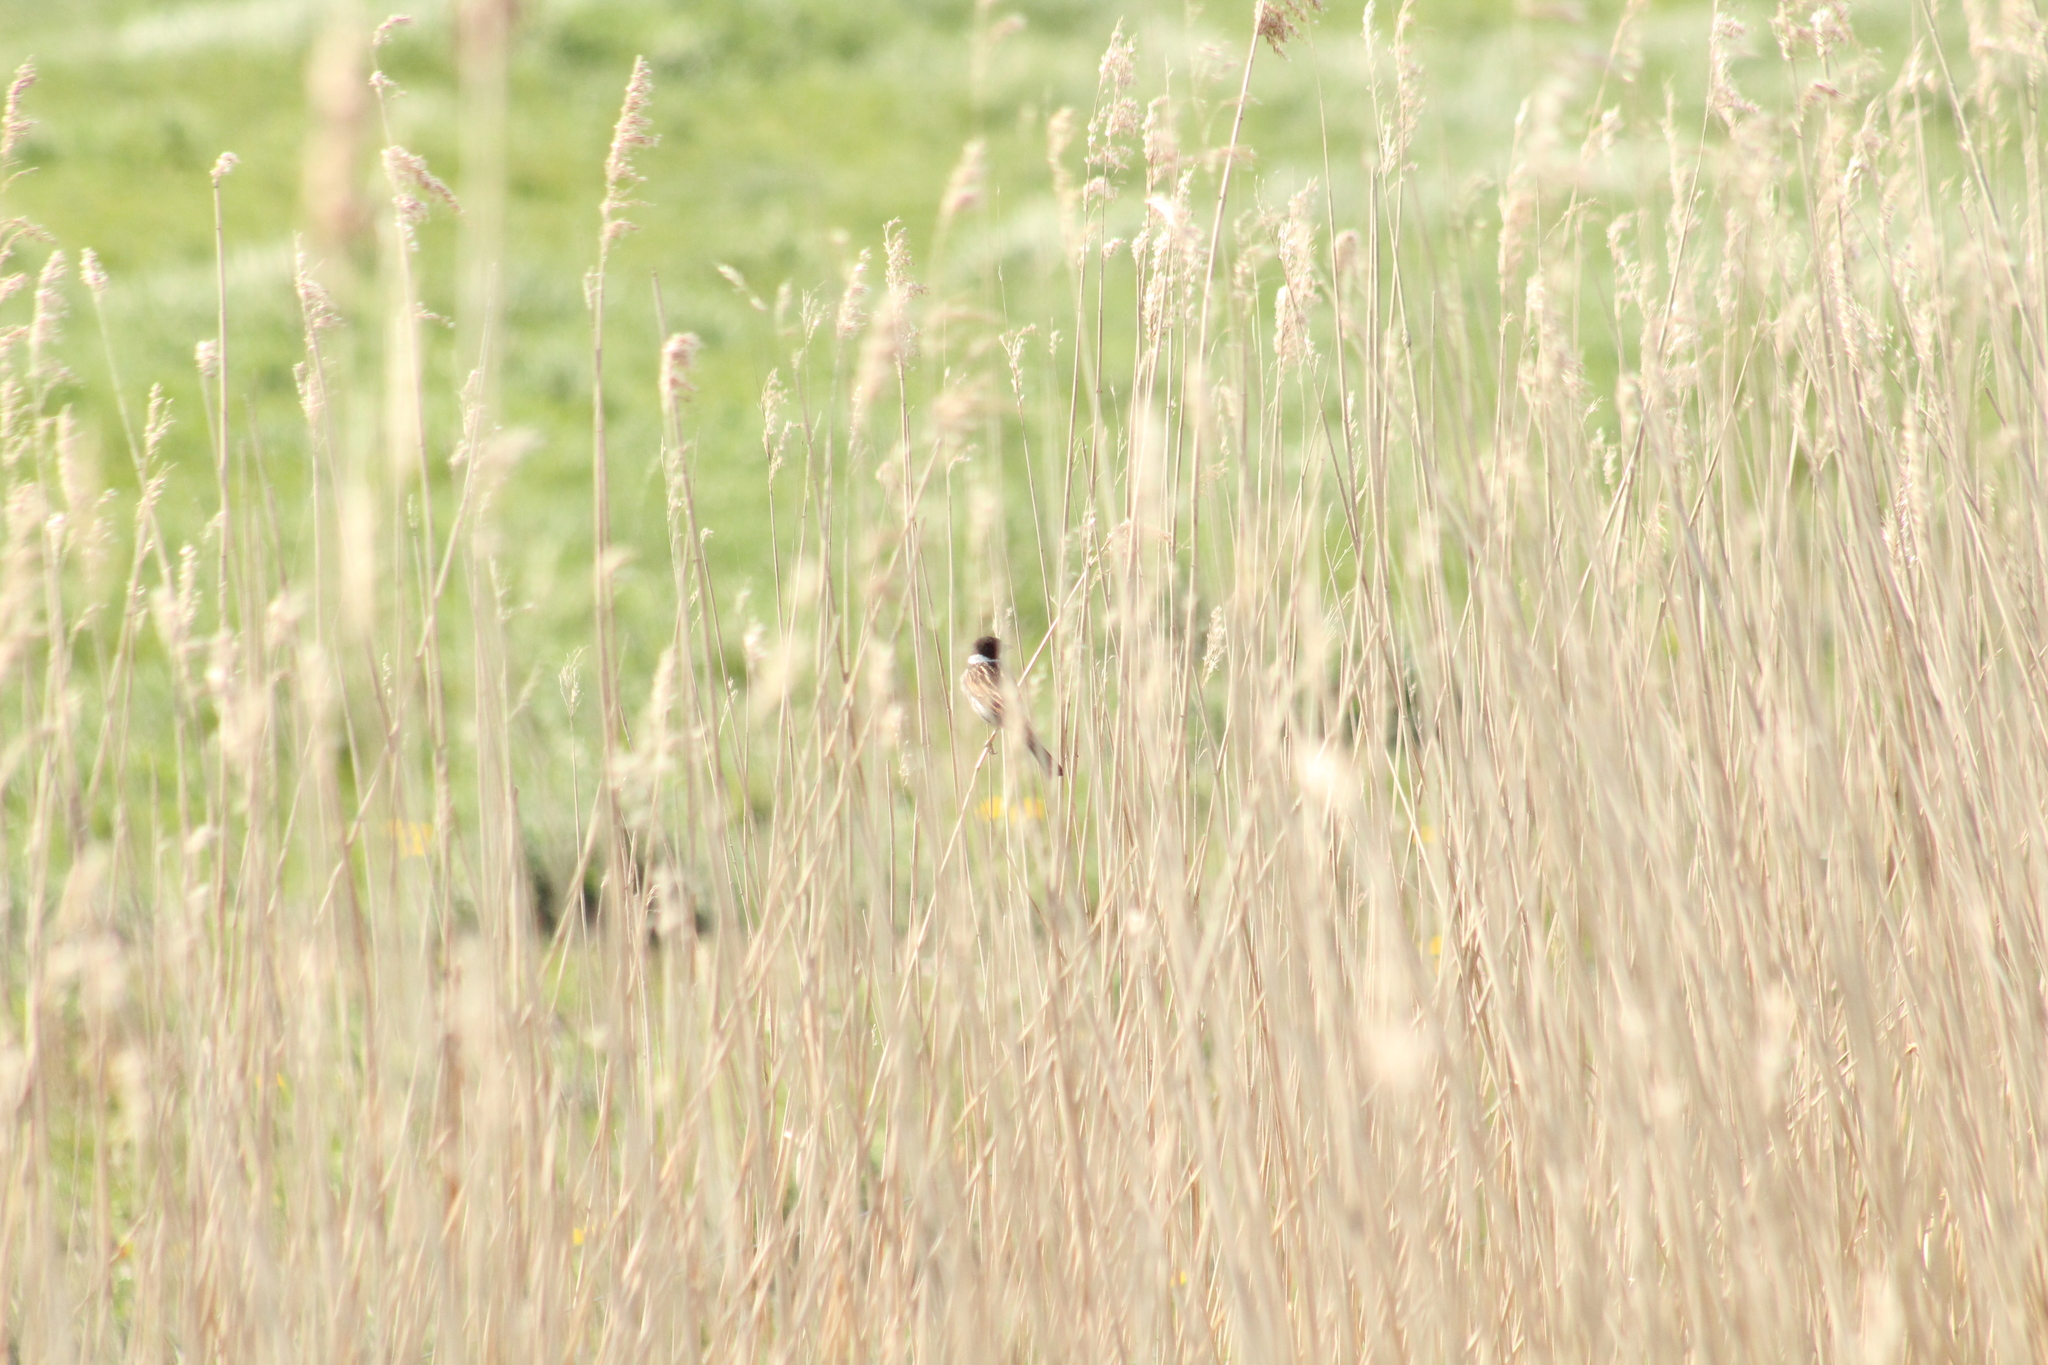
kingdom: Animalia
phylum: Chordata
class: Aves
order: Passeriformes
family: Muscicapidae
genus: Saxicola
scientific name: Saxicola rubicola
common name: European stonechat
